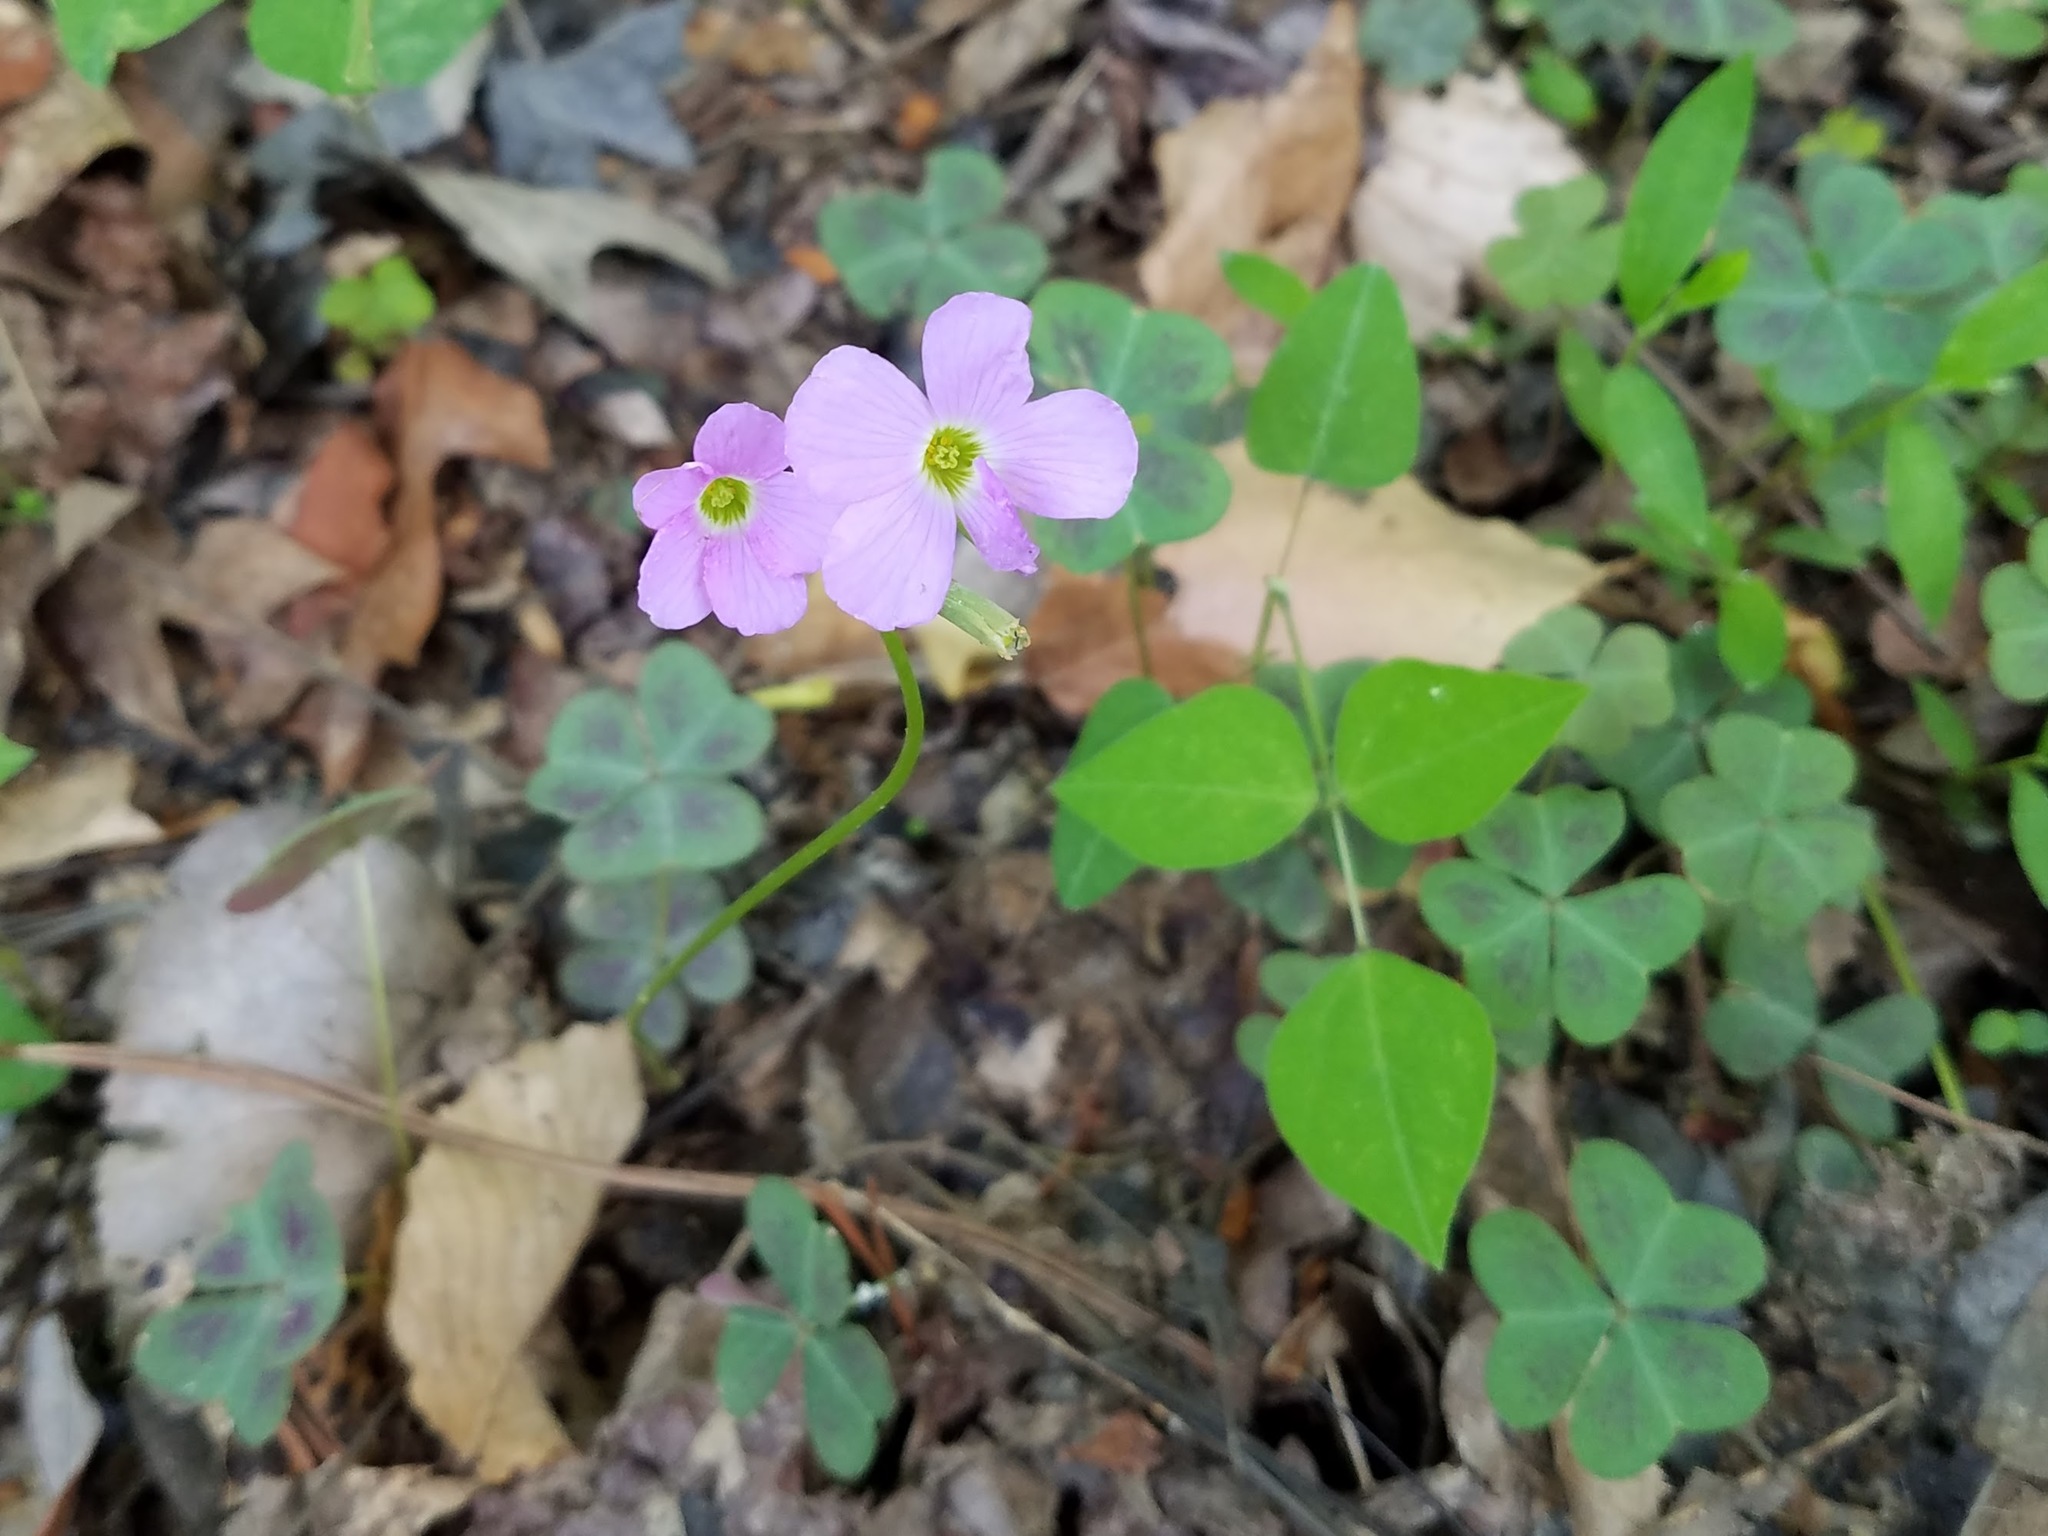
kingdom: Plantae
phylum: Tracheophyta
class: Magnoliopsida
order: Oxalidales
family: Oxalidaceae
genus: Oxalis
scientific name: Oxalis violacea
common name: Violet wood-sorrel
